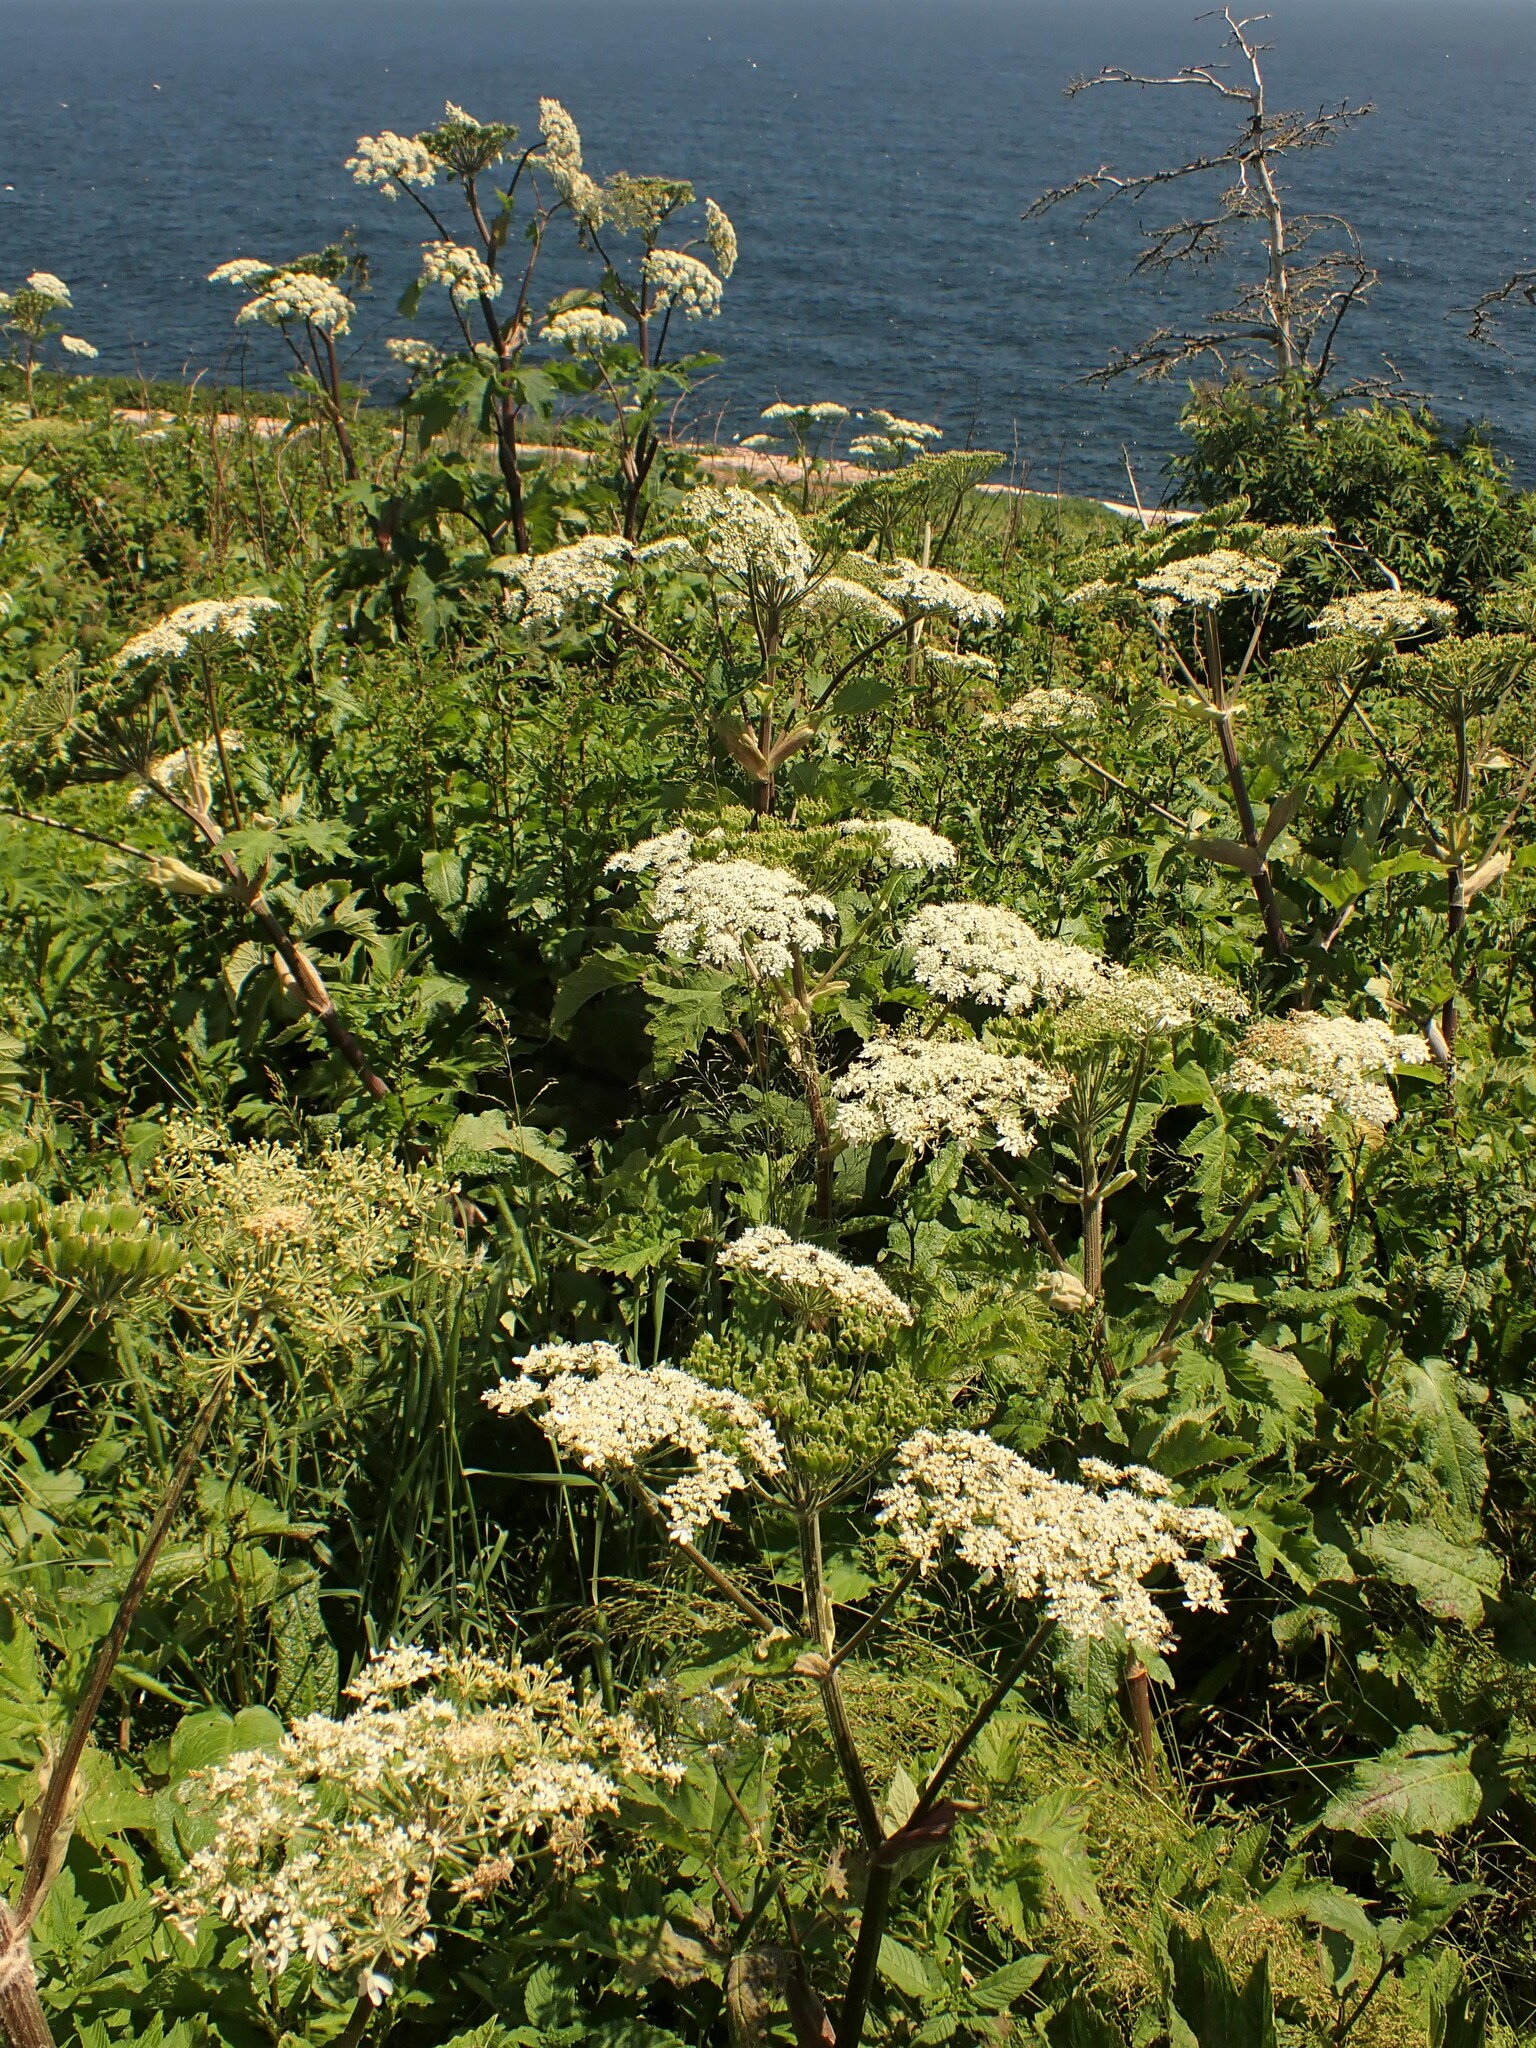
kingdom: Plantae
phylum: Tracheophyta
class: Magnoliopsida
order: Apiales
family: Apiaceae
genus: Heracleum
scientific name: Heracleum maximum
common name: American cow parsnip
